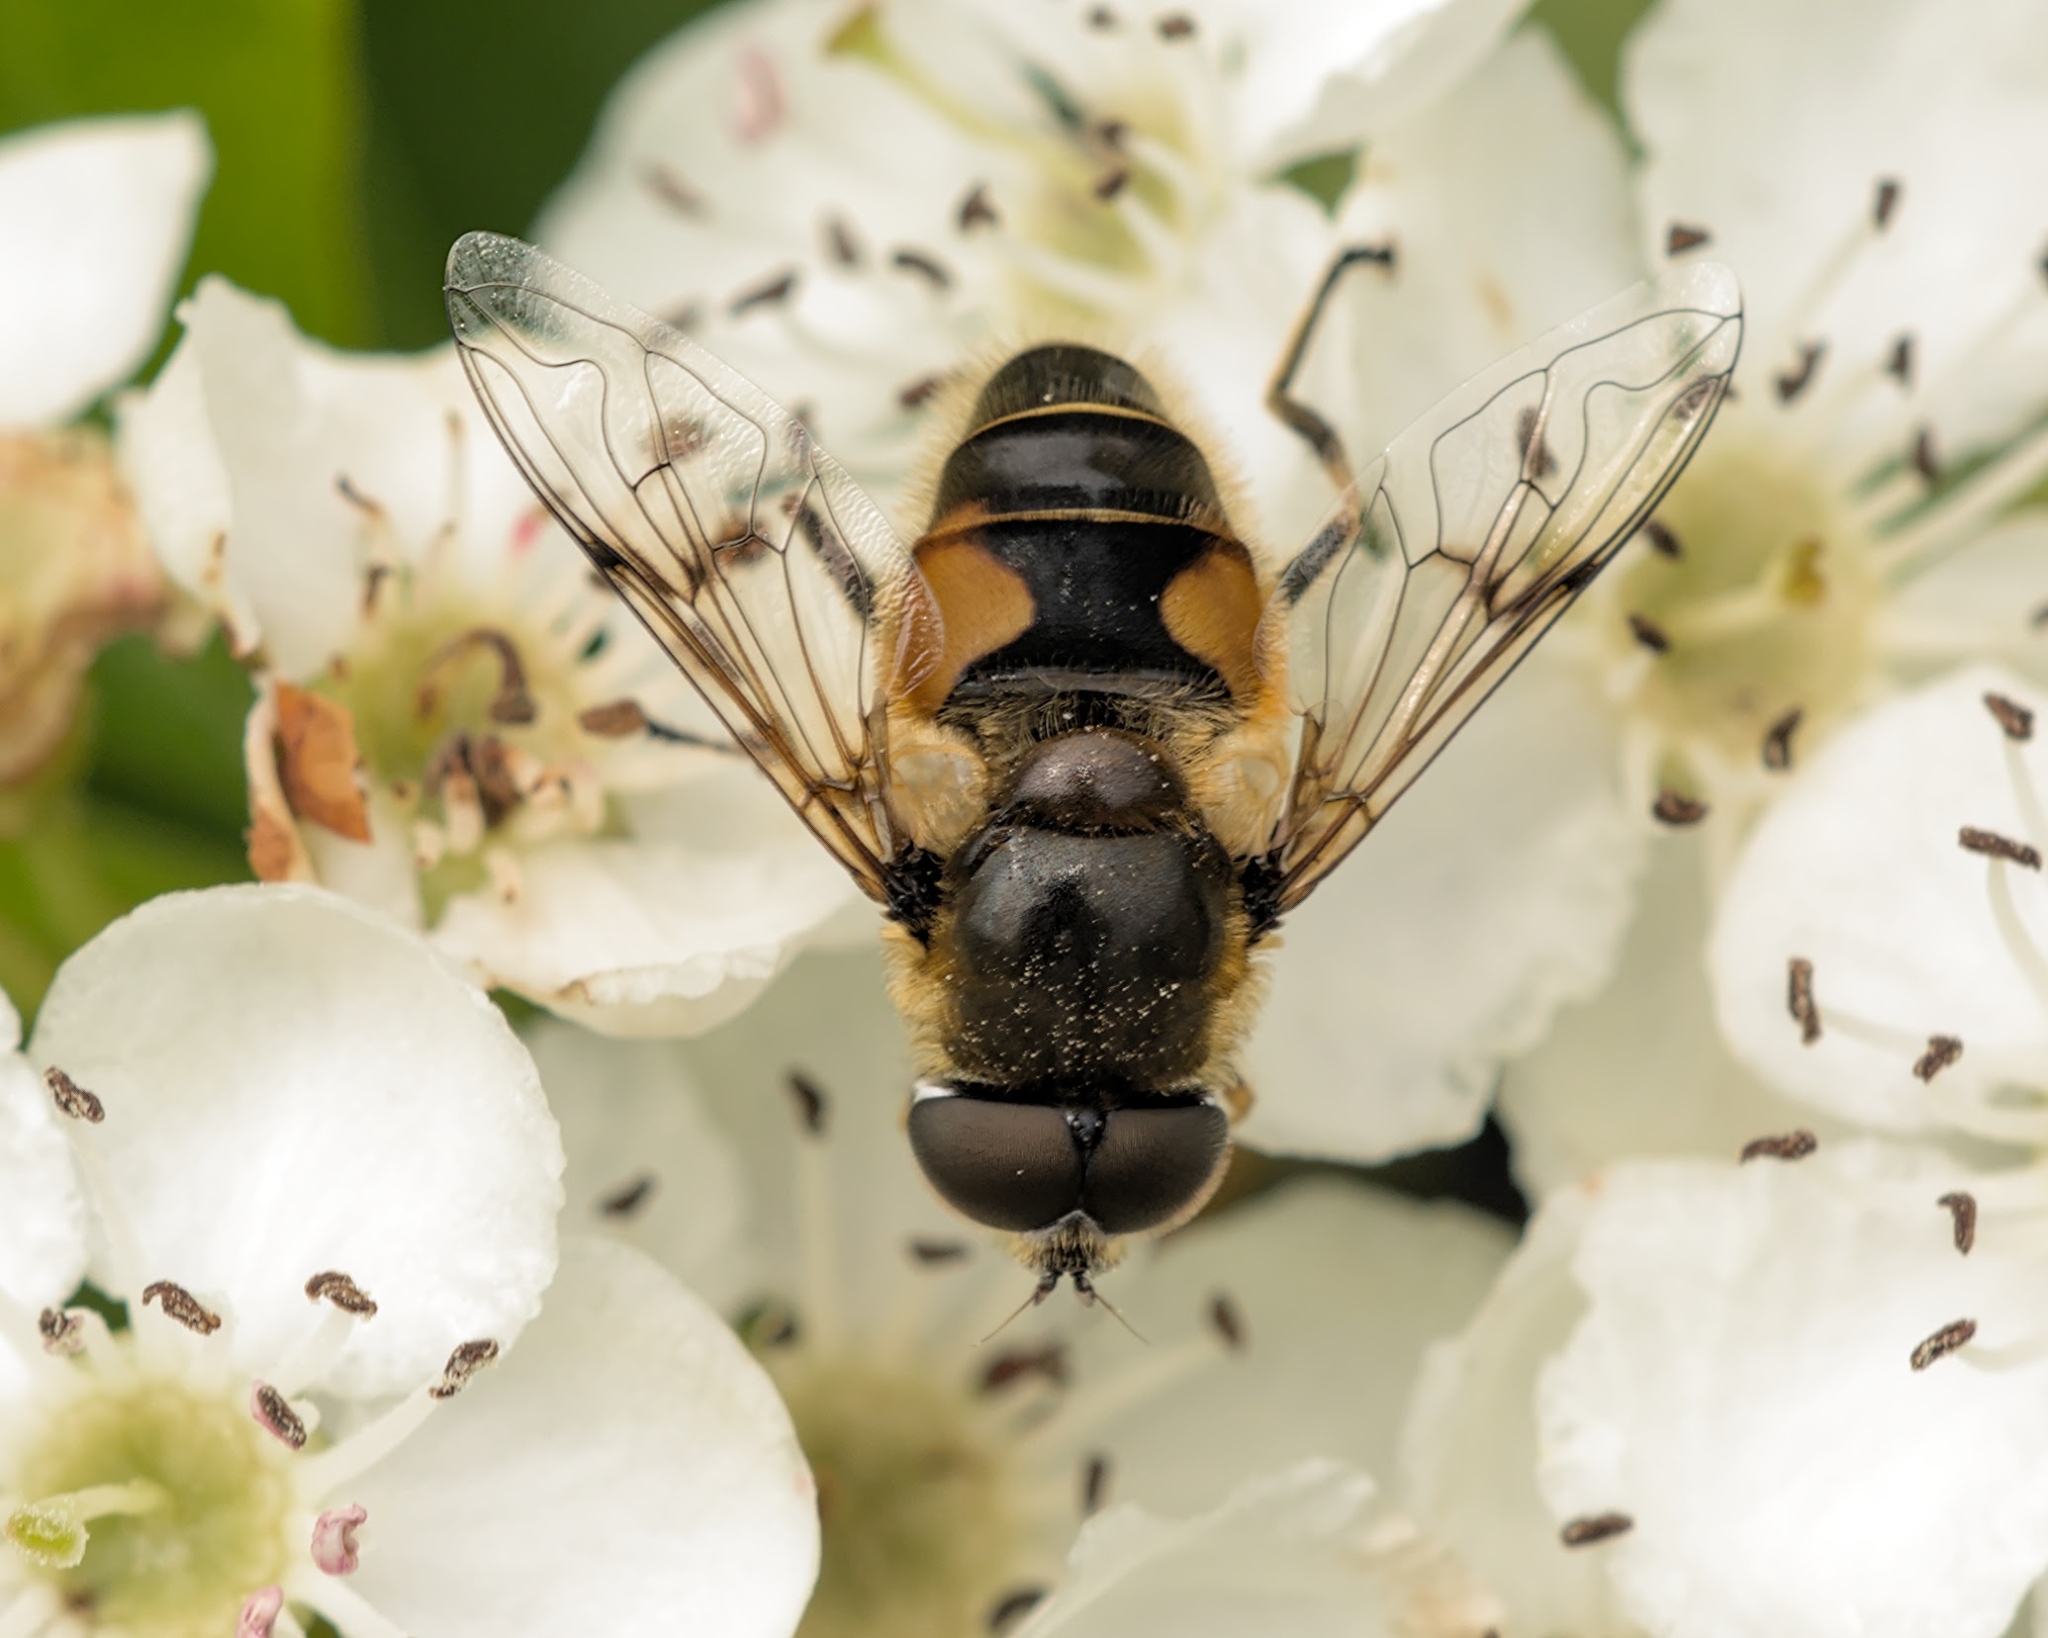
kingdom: Animalia
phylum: Arthropoda
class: Insecta
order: Diptera
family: Syrphidae
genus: Cheilosia
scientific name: Cheilosia morio
